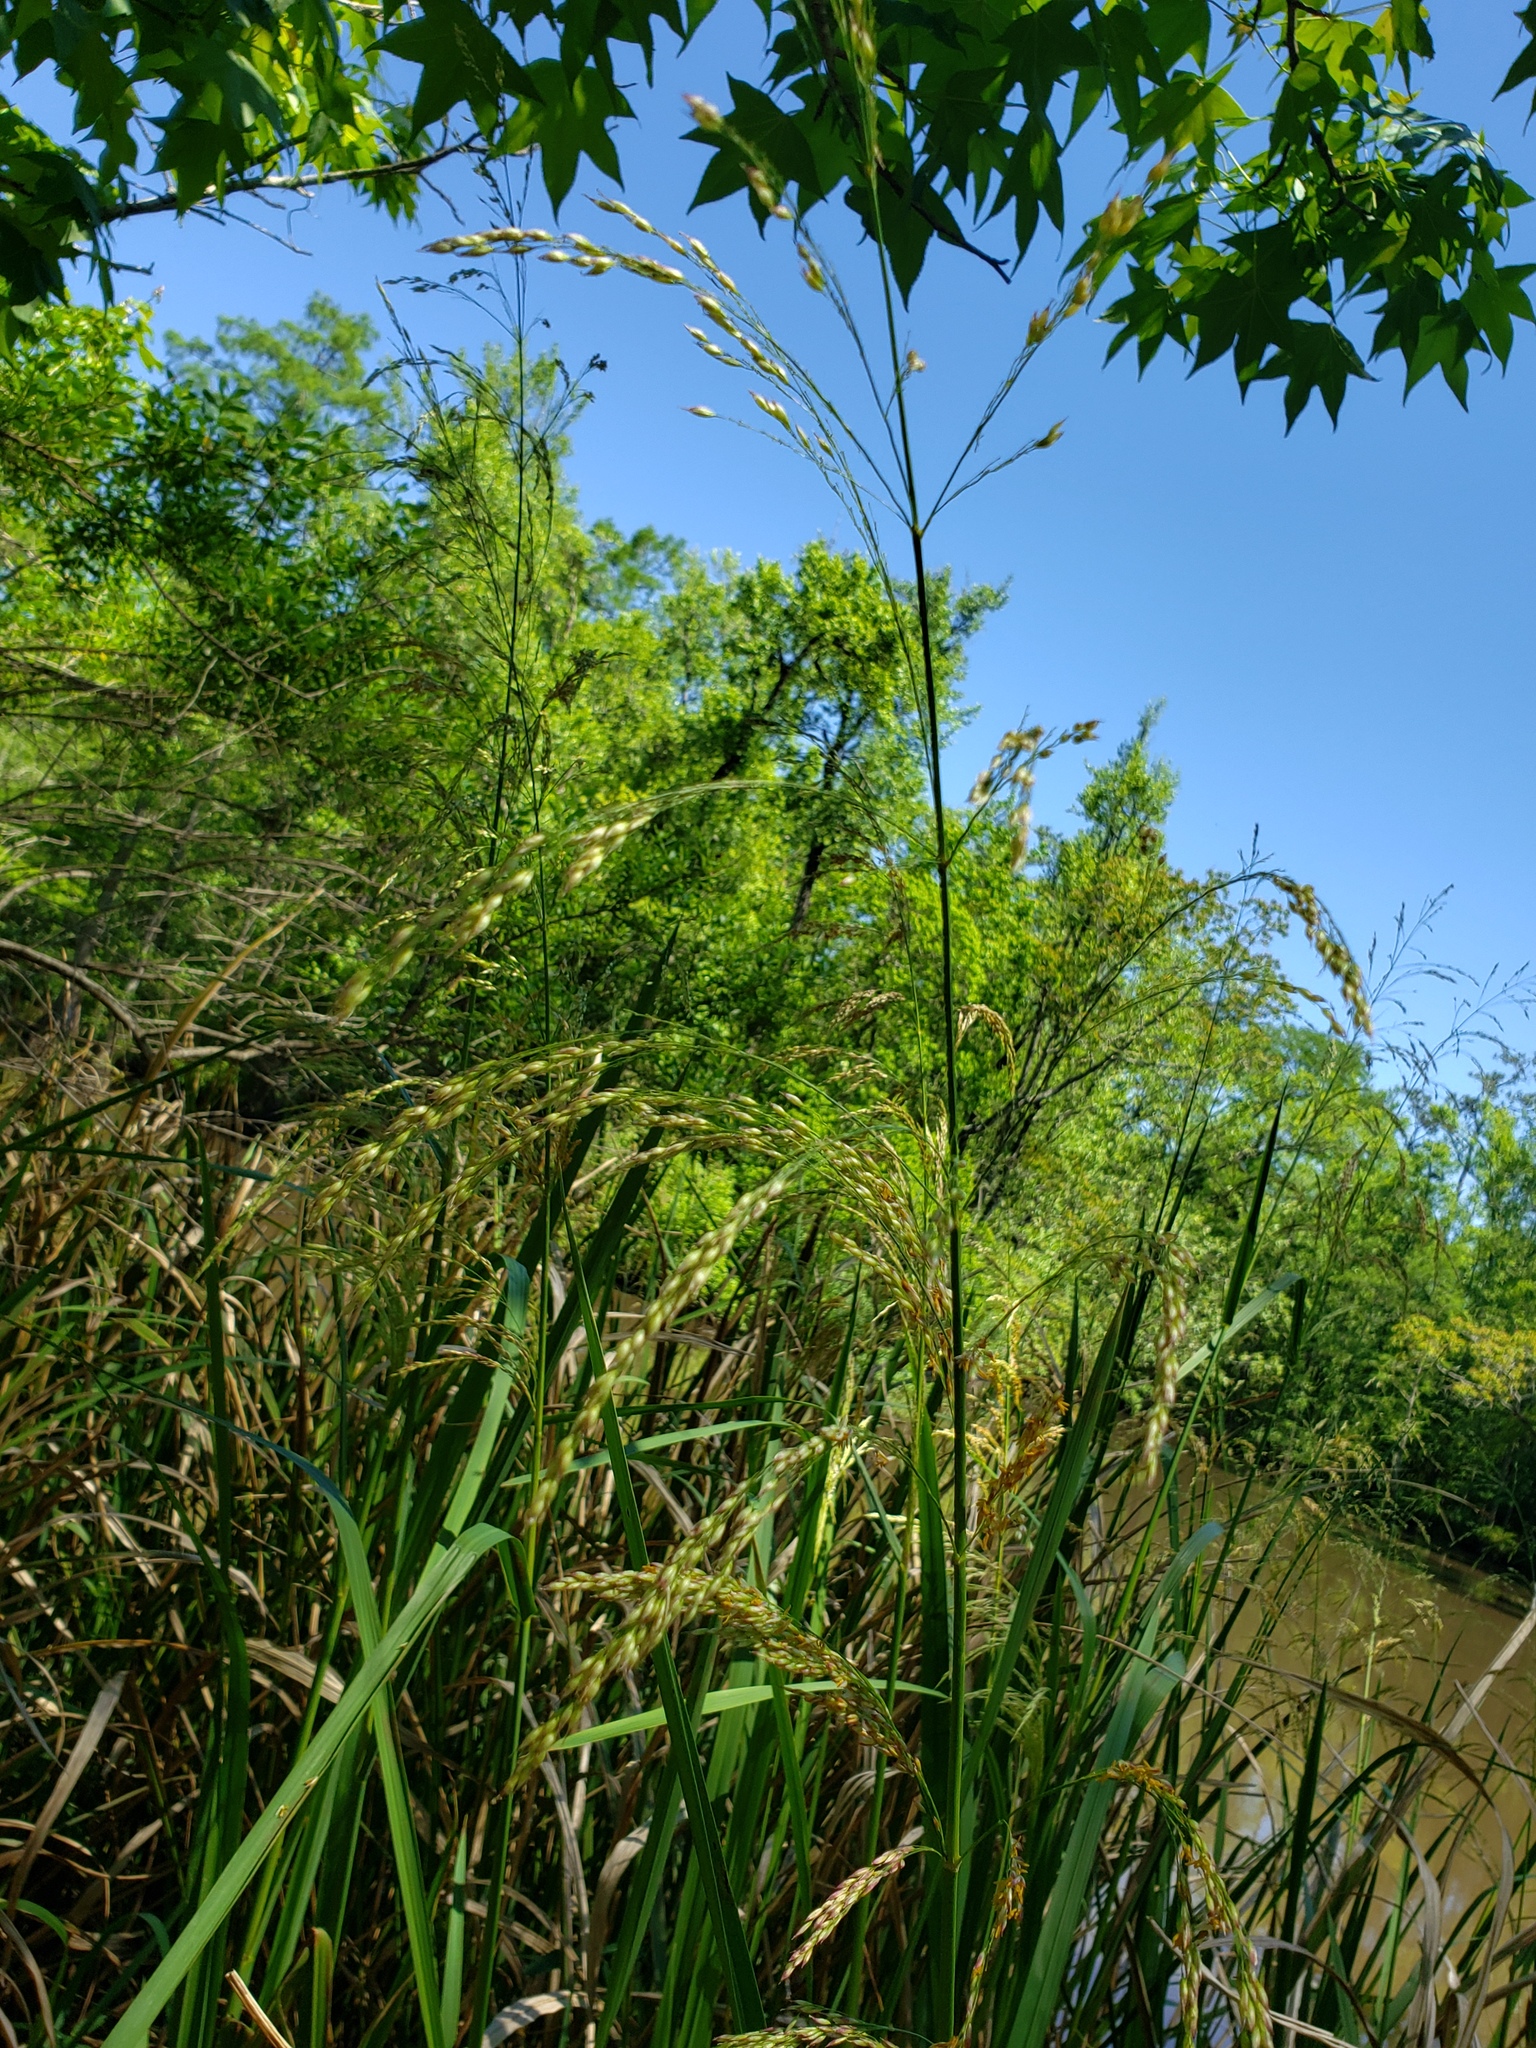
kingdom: Plantae
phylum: Tracheophyta
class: Liliopsida
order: Poales
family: Poaceae
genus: Zizaniopsis
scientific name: Zizaniopsis miliacea
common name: Giant-cutgrass
